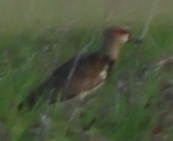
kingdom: Animalia
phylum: Chordata
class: Aves
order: Charadriiformes
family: Charadriidae
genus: Vanellus
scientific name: Vanellus chilensis
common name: Southern lapwing
